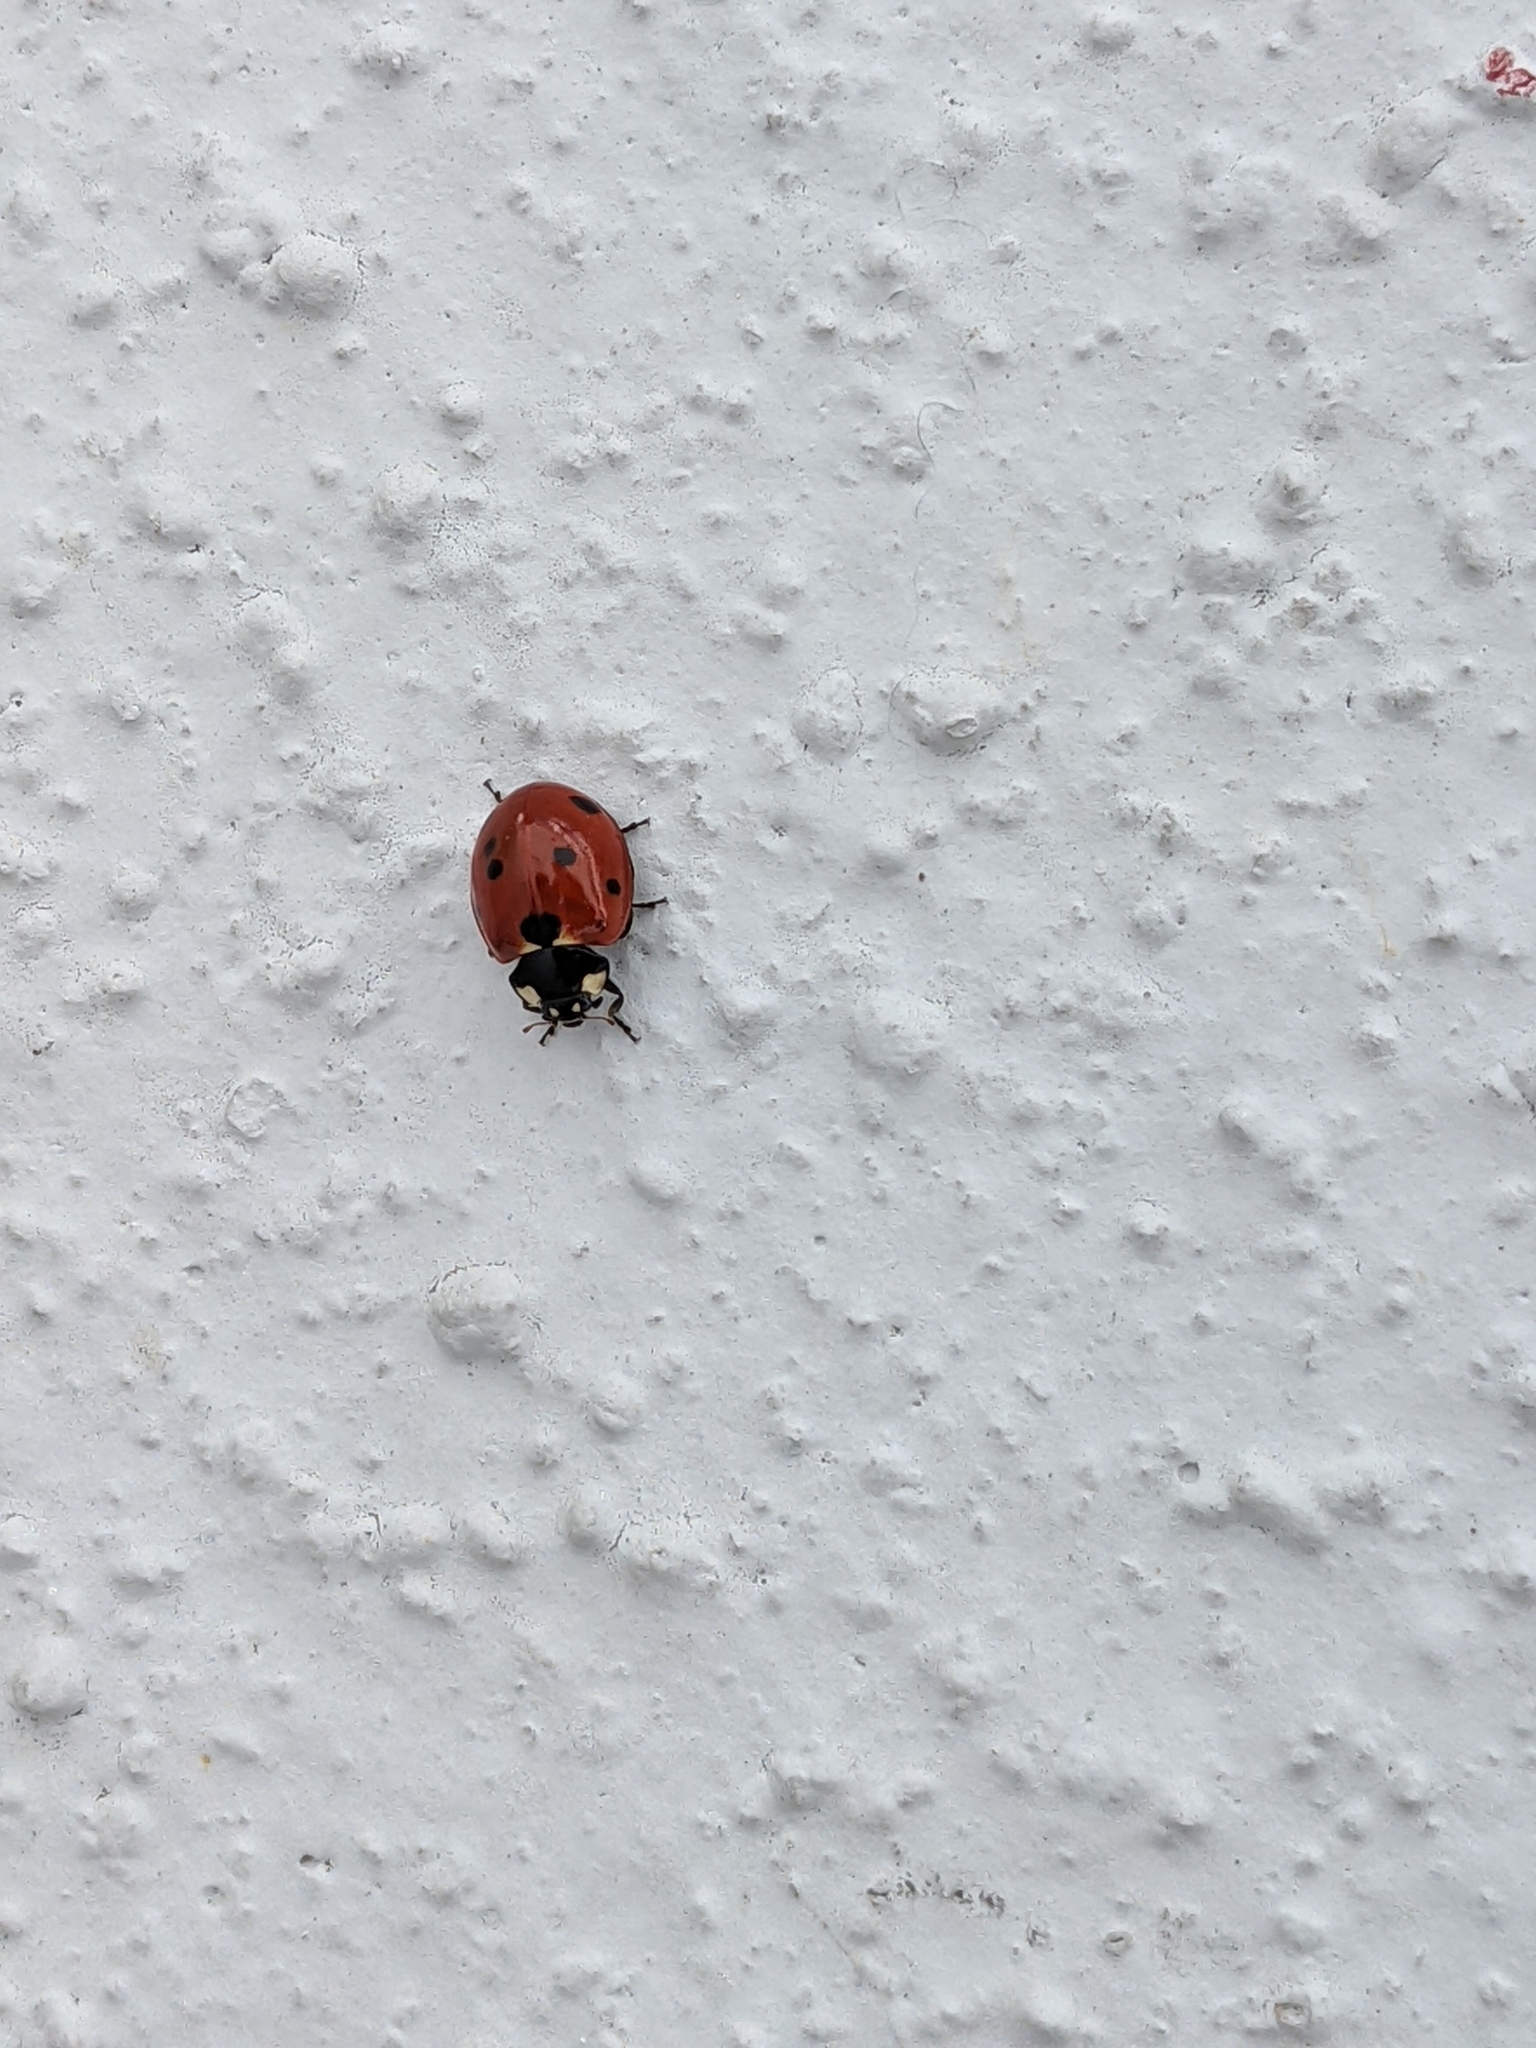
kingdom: Animalia
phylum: Arthropoda
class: Insecta
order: Coleoptera
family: Coccinellidae
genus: Coccinella
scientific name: Coccinella septempunctata
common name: Sevenspotted lady beetle
